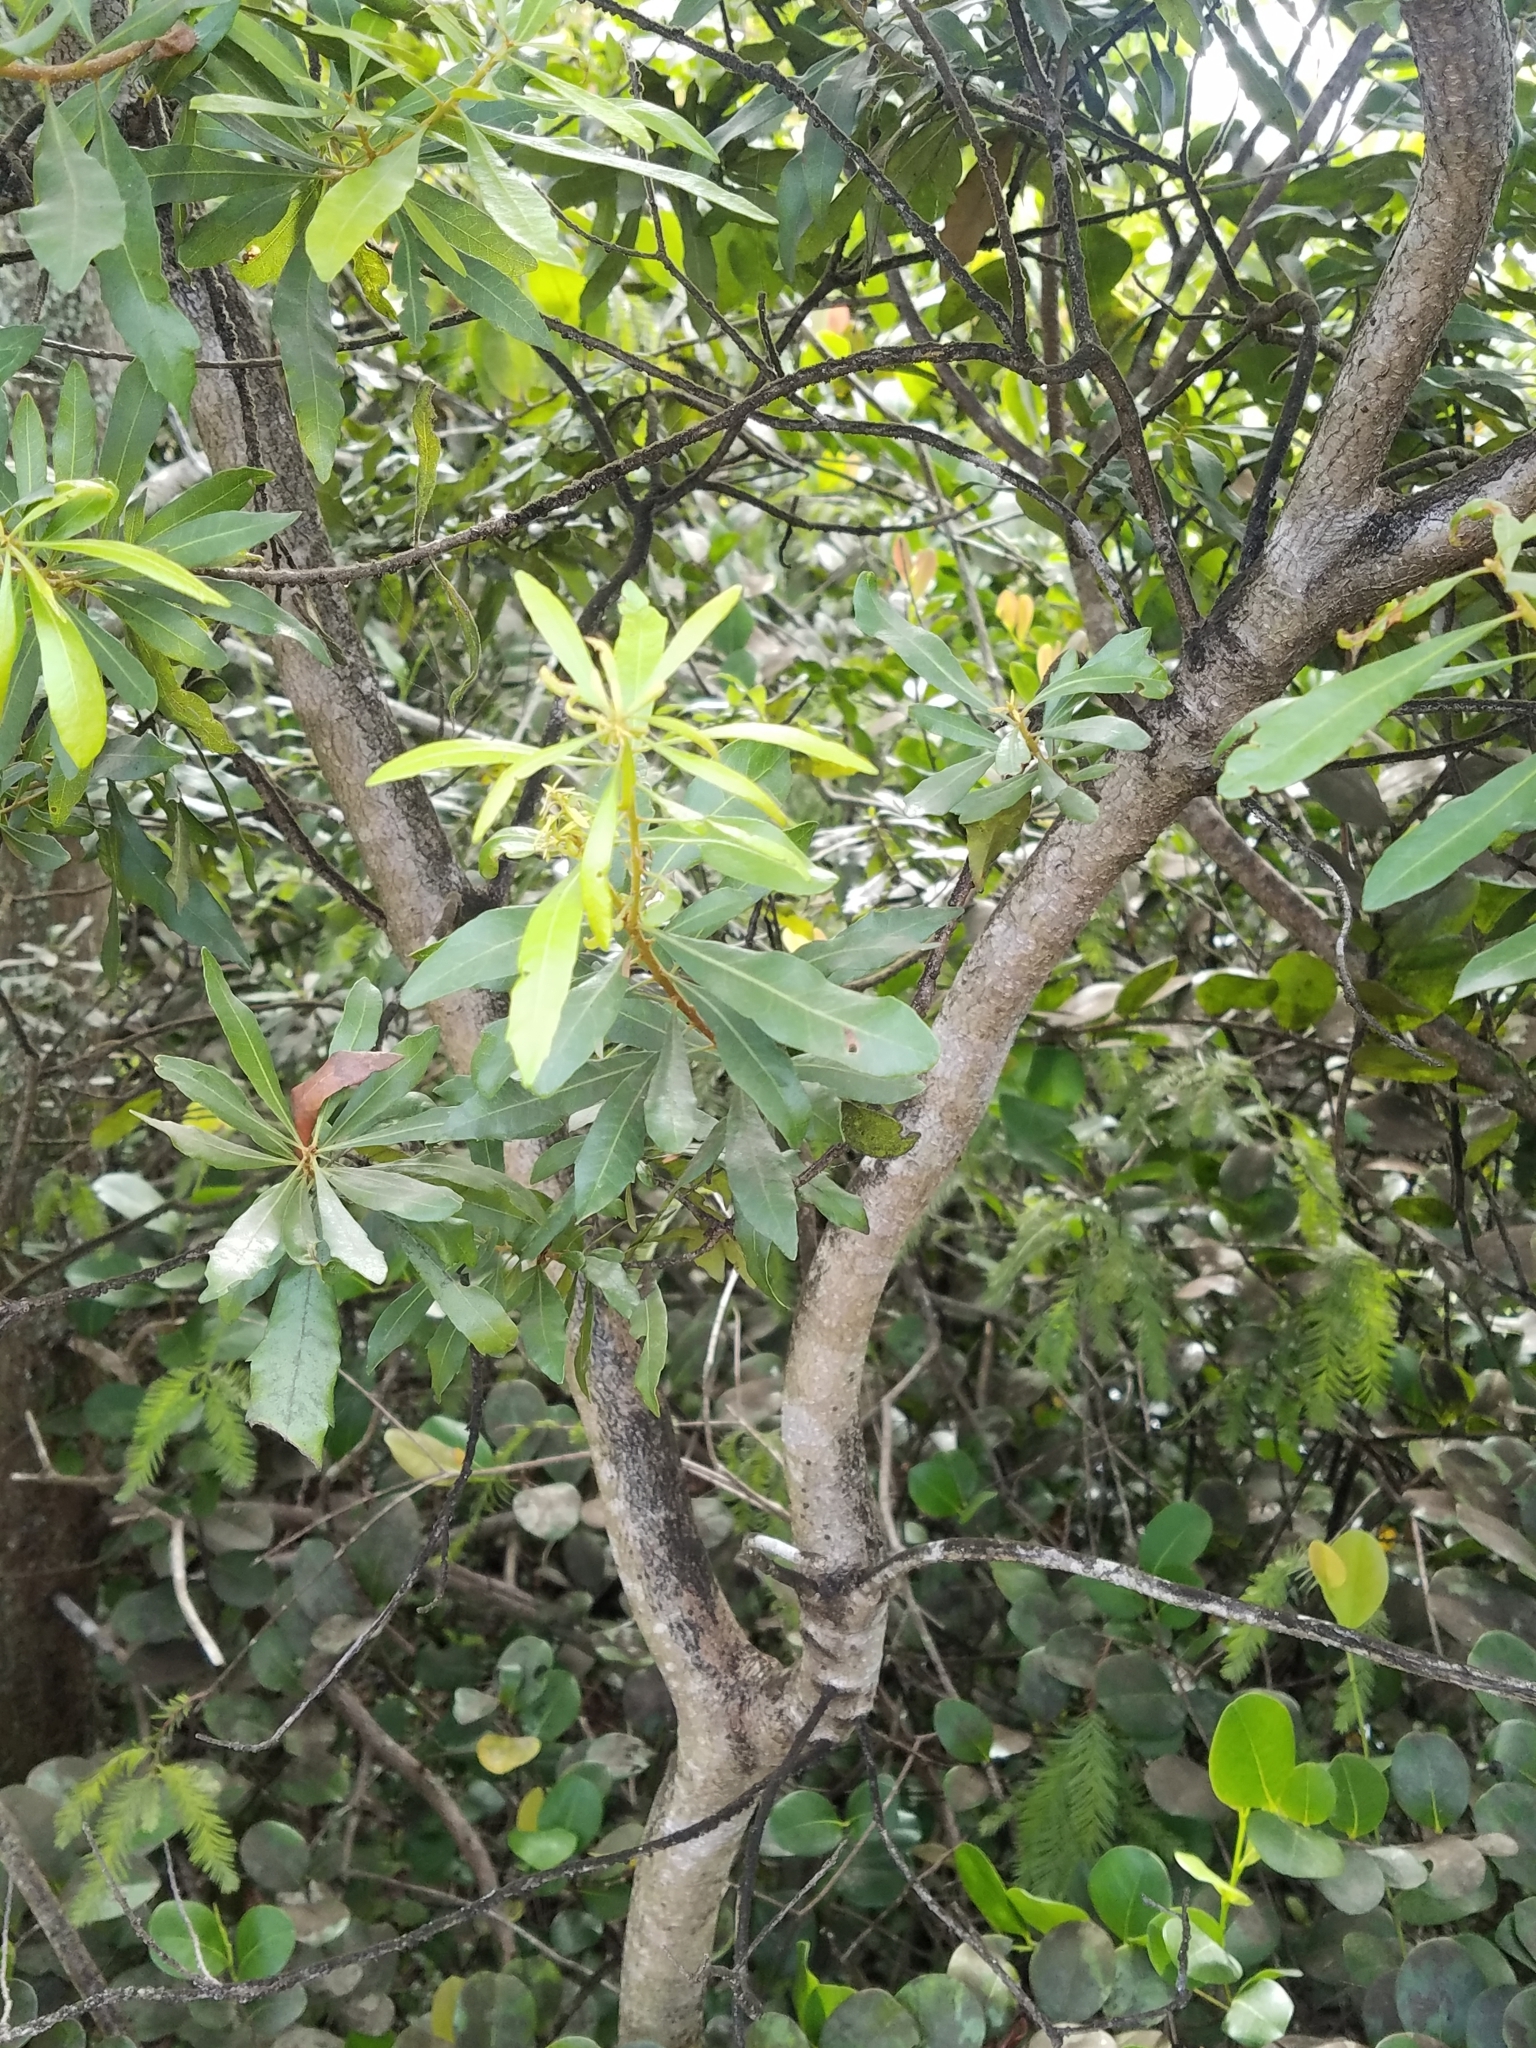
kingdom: Plantae
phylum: Tracheophyta
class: Magnoliopsida
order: Fagales
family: Myricaceae
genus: Morella
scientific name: Morella cerifera
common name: Wax myrtle
